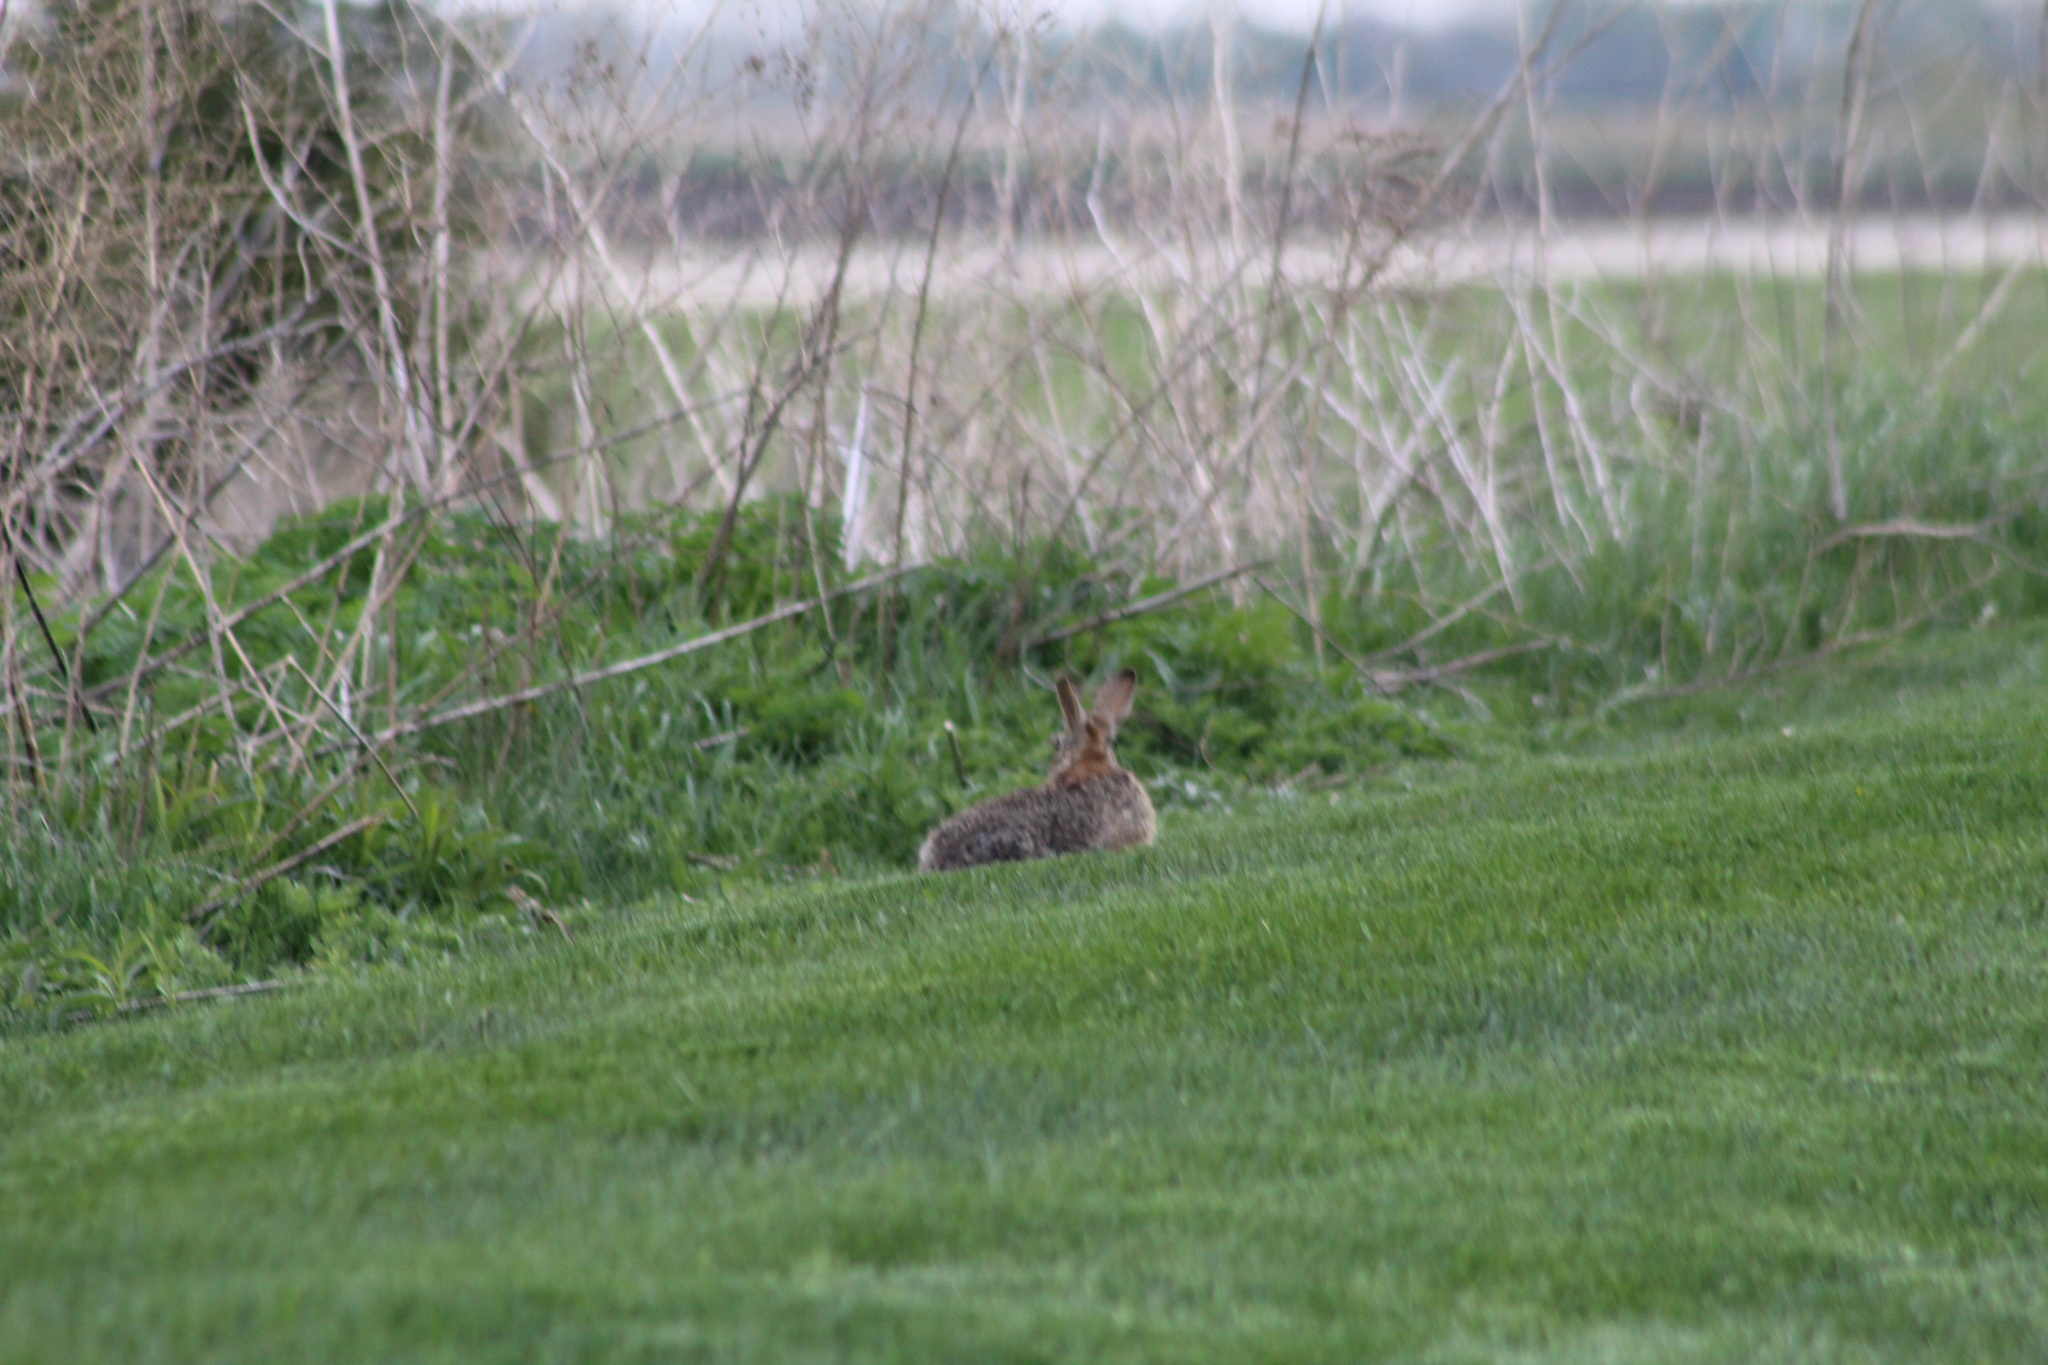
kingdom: Animalia
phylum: Chordata
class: Mammalia
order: Lagomorpha
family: Leporidae
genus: Sylvilagus
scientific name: Sylvilagus floridanus
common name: Eastern cottontail
